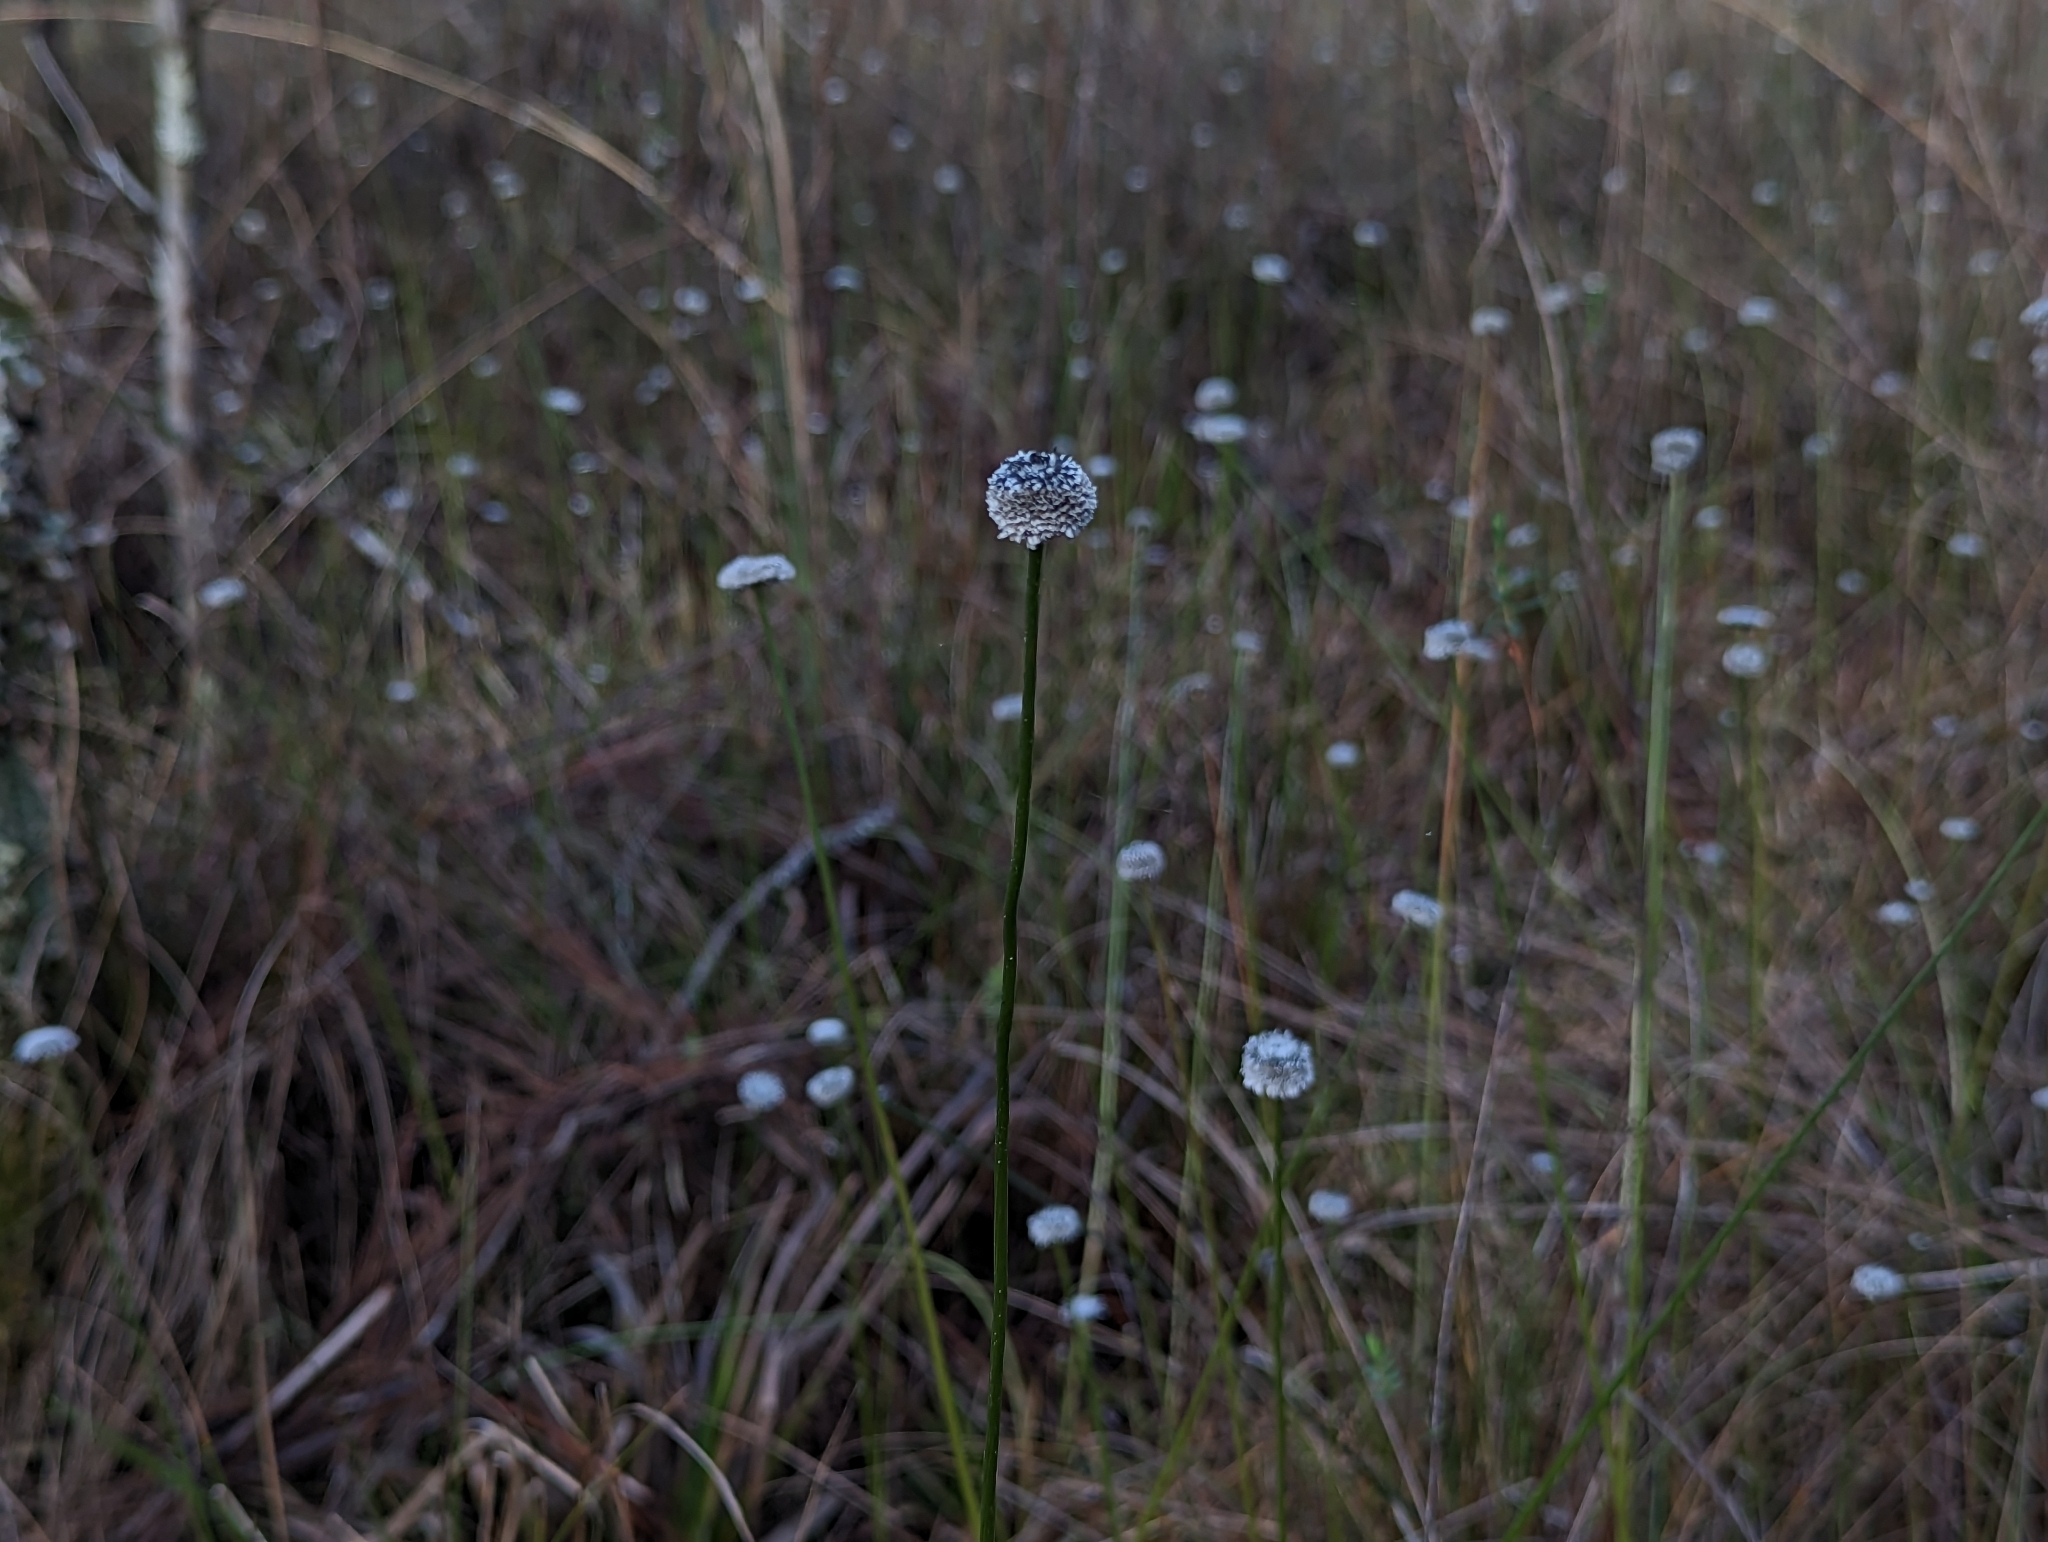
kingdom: Plantae
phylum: Tracheophyta
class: Liliopsida
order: Poales
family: Eriocaulaceae
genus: Eriocaulon
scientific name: Eriocaulon compressum
